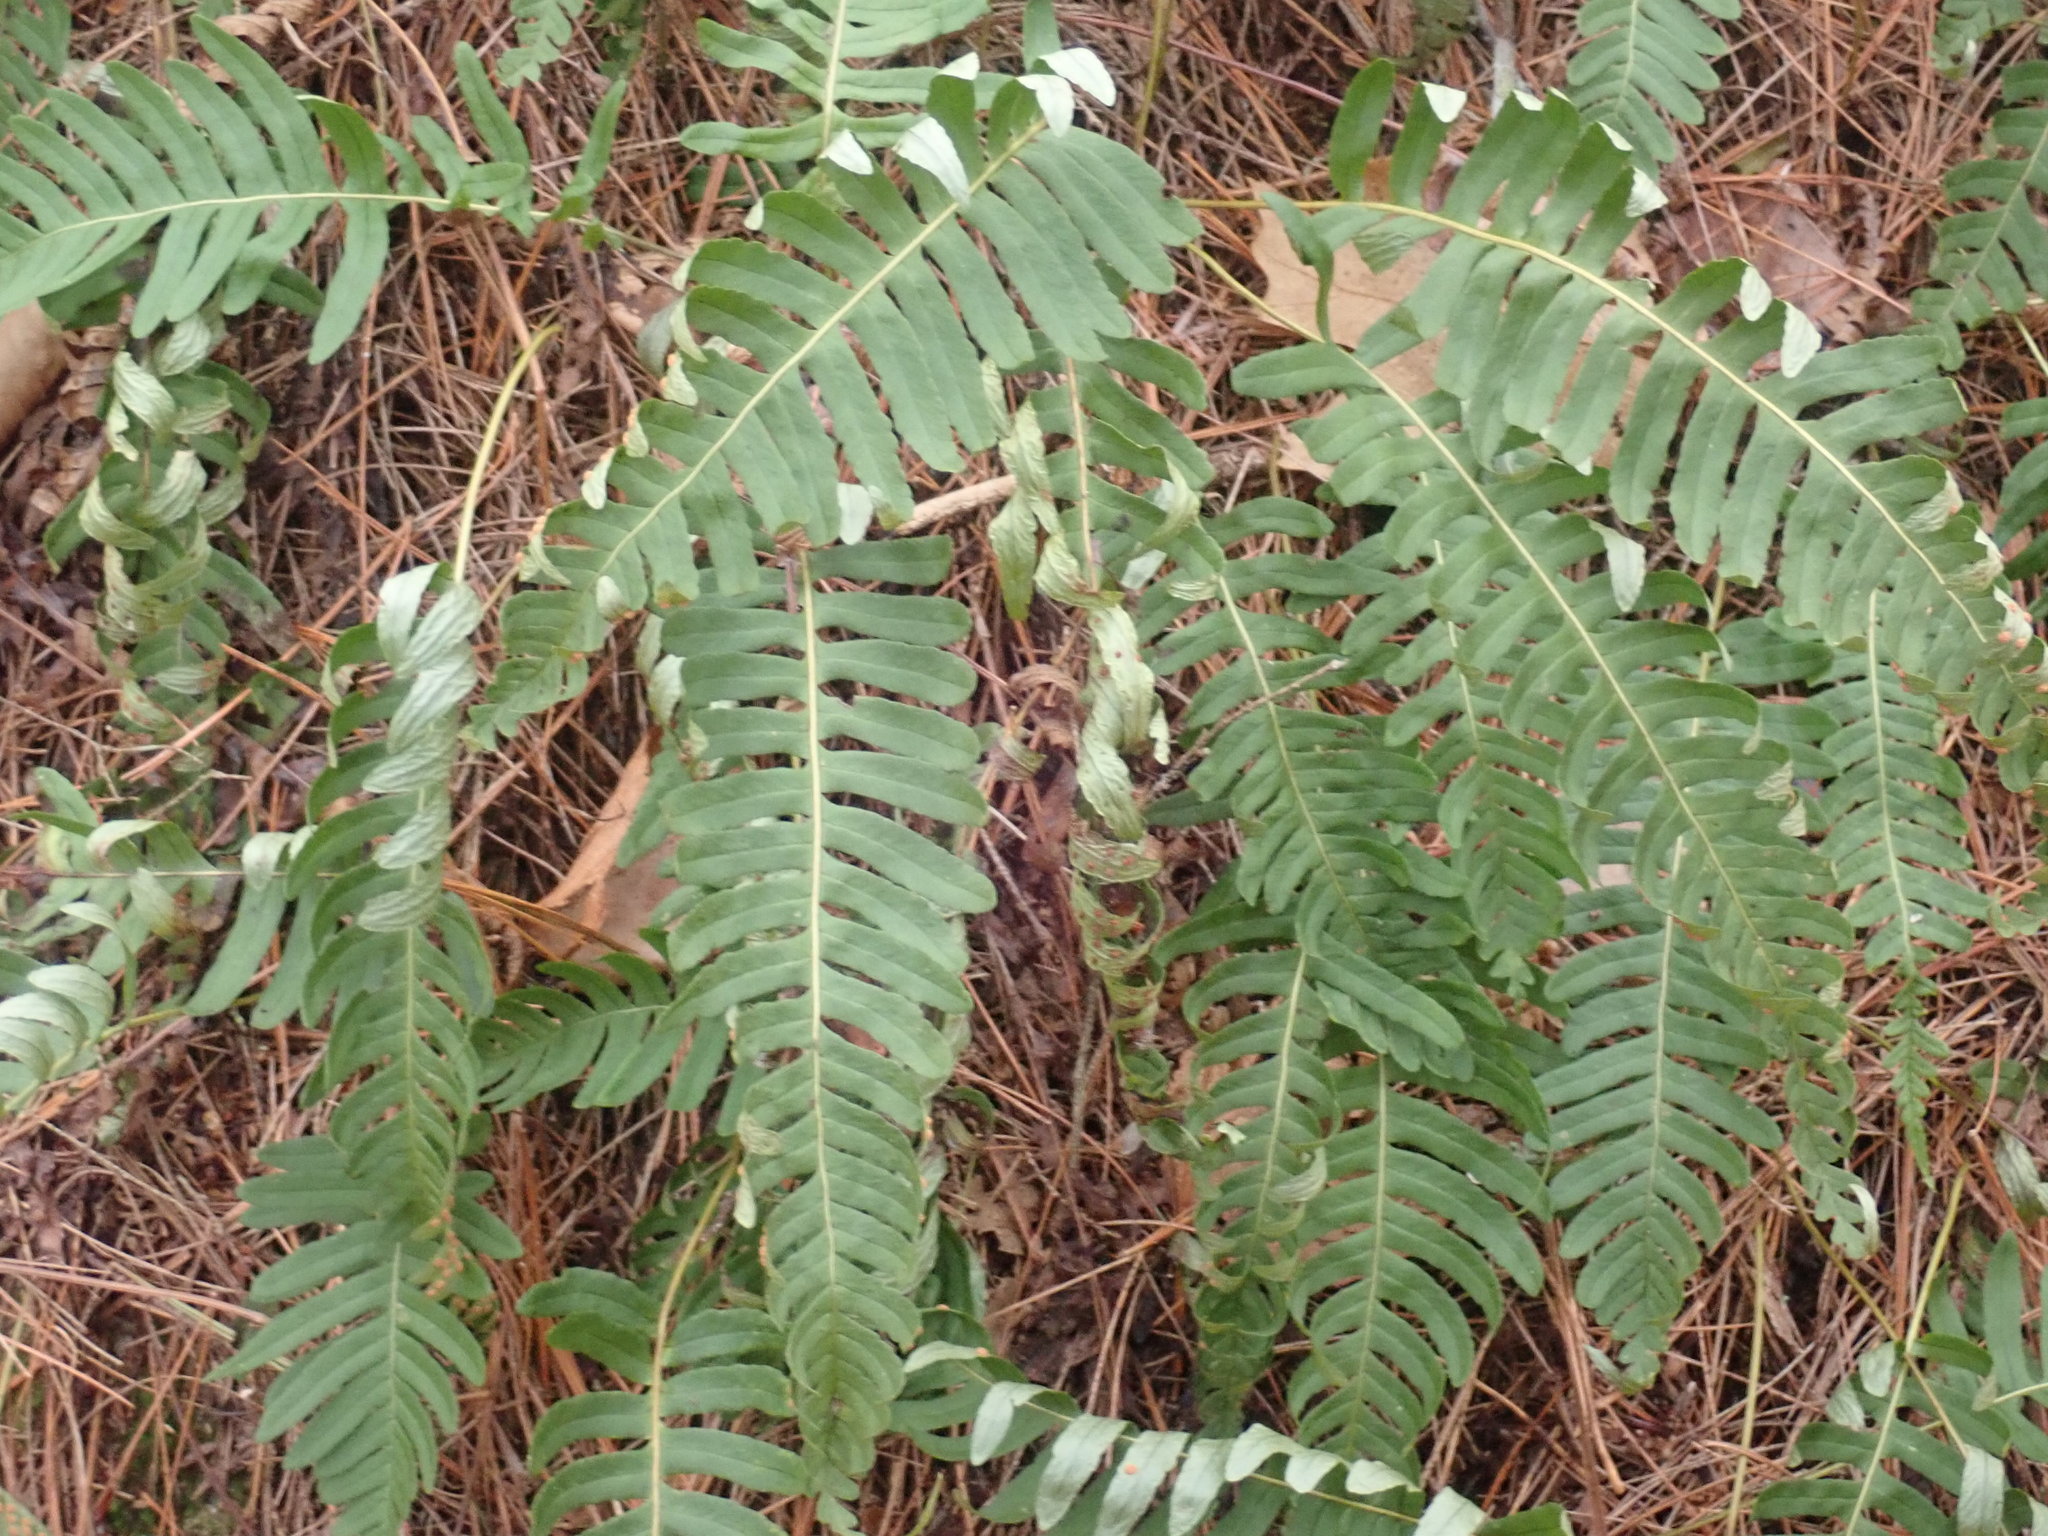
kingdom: Plantae
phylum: Tracheophyta
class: Polypodiopsida
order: Polypodiales
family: Polypodiaceae
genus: Polypodium
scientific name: Polypodium
